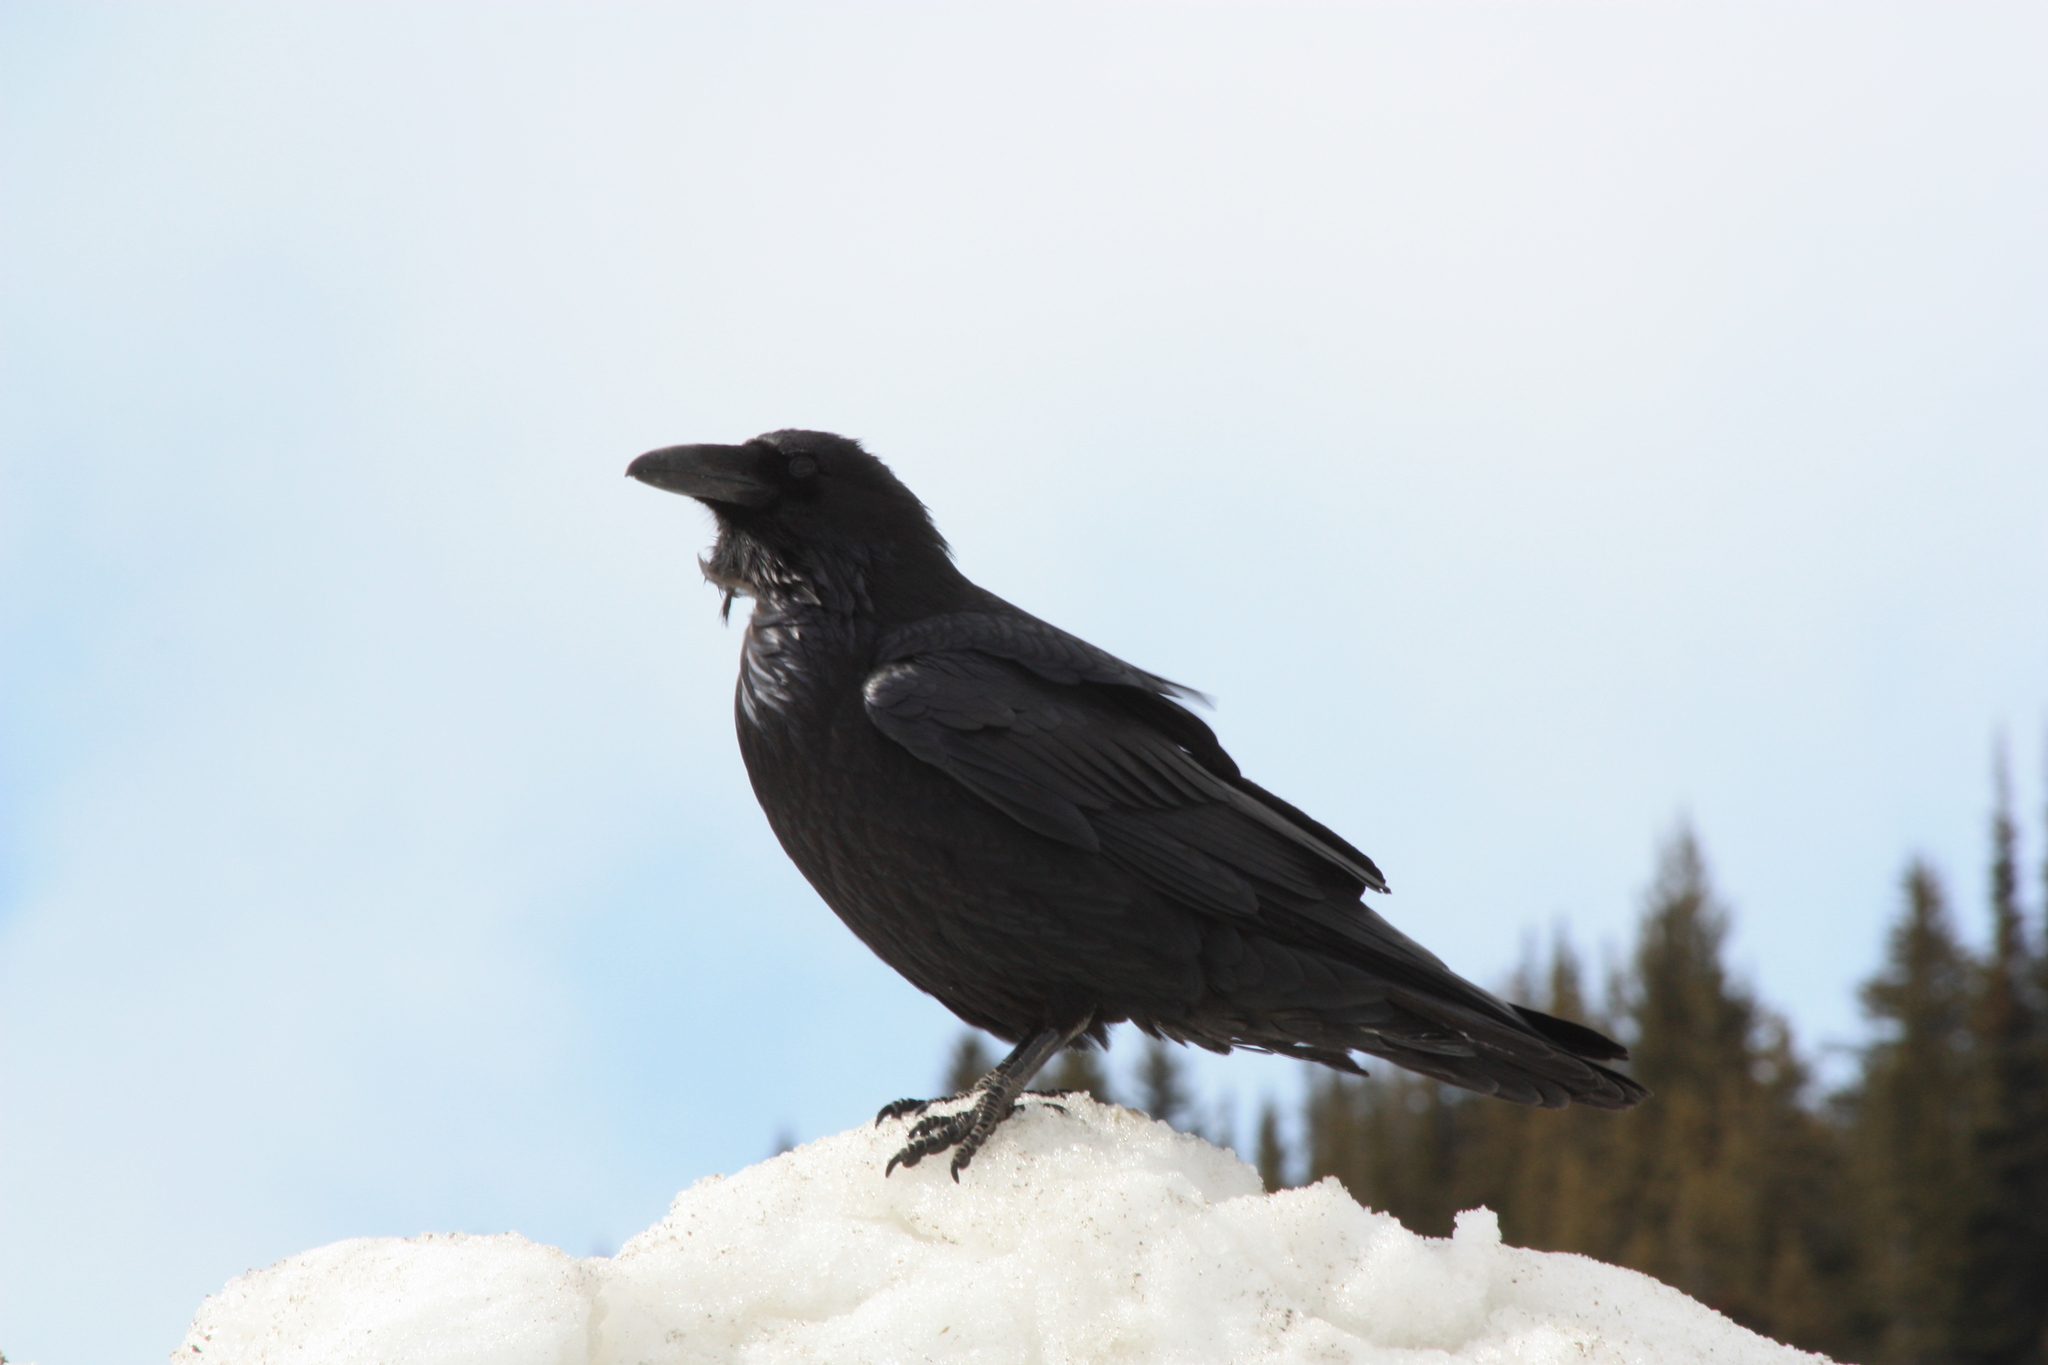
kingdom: Animalia
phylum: Chordata
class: Aves
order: Passeriformes
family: Corvidae
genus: Corvus
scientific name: Corvus corax
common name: Common raven
